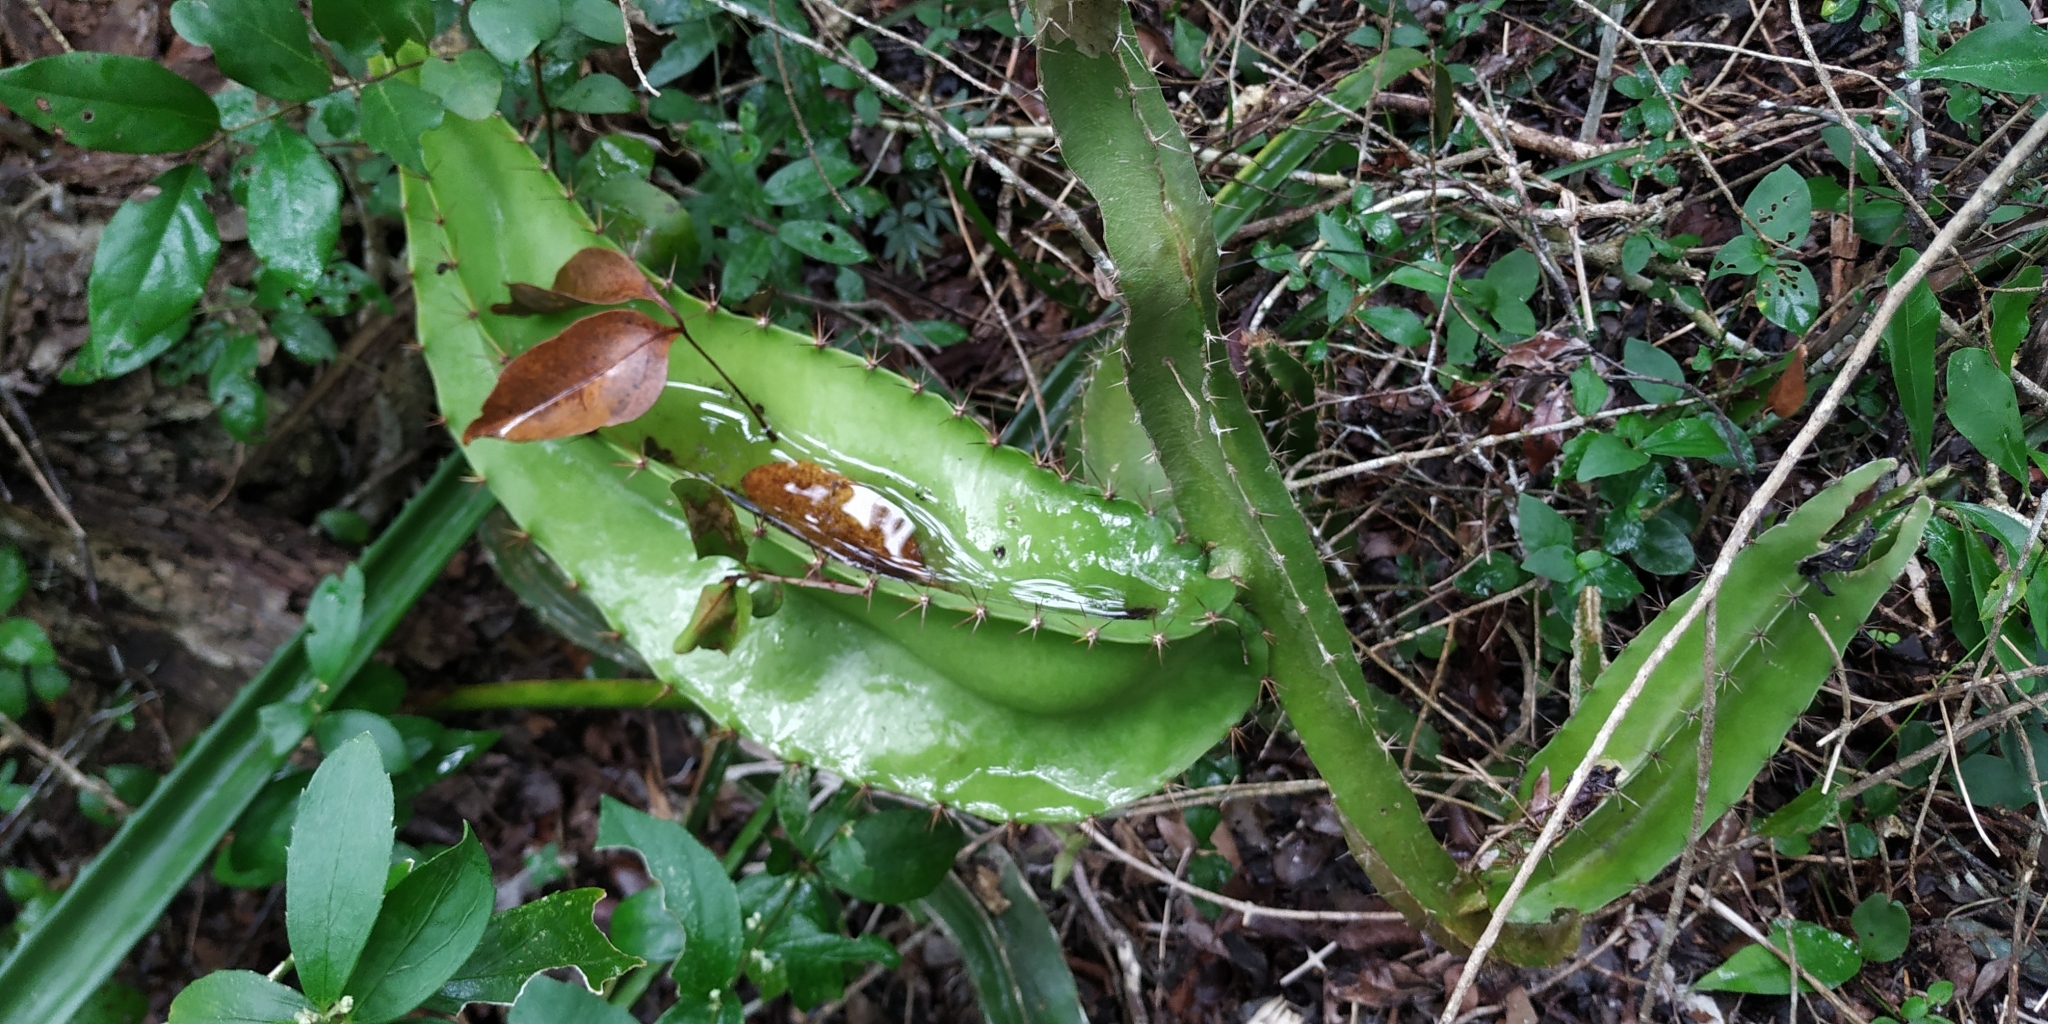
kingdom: Plantae
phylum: Tracheophyta
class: Magnoliopsida
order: Caryophyllales
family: Cactaceae
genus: Deamia
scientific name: Deamia testudo
